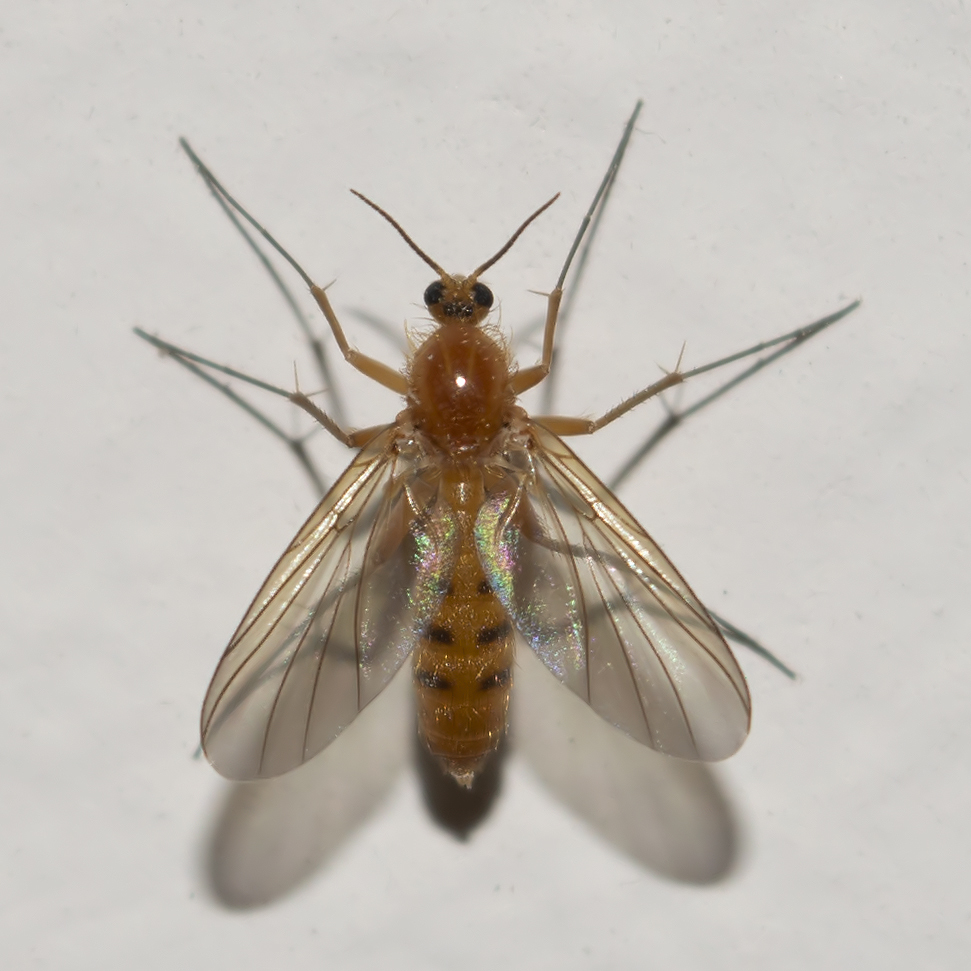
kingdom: Animalia
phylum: Arthropoda
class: Insecta
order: Diptera
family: Mycetophilidae
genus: Acnemia
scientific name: Acnemia amoena
